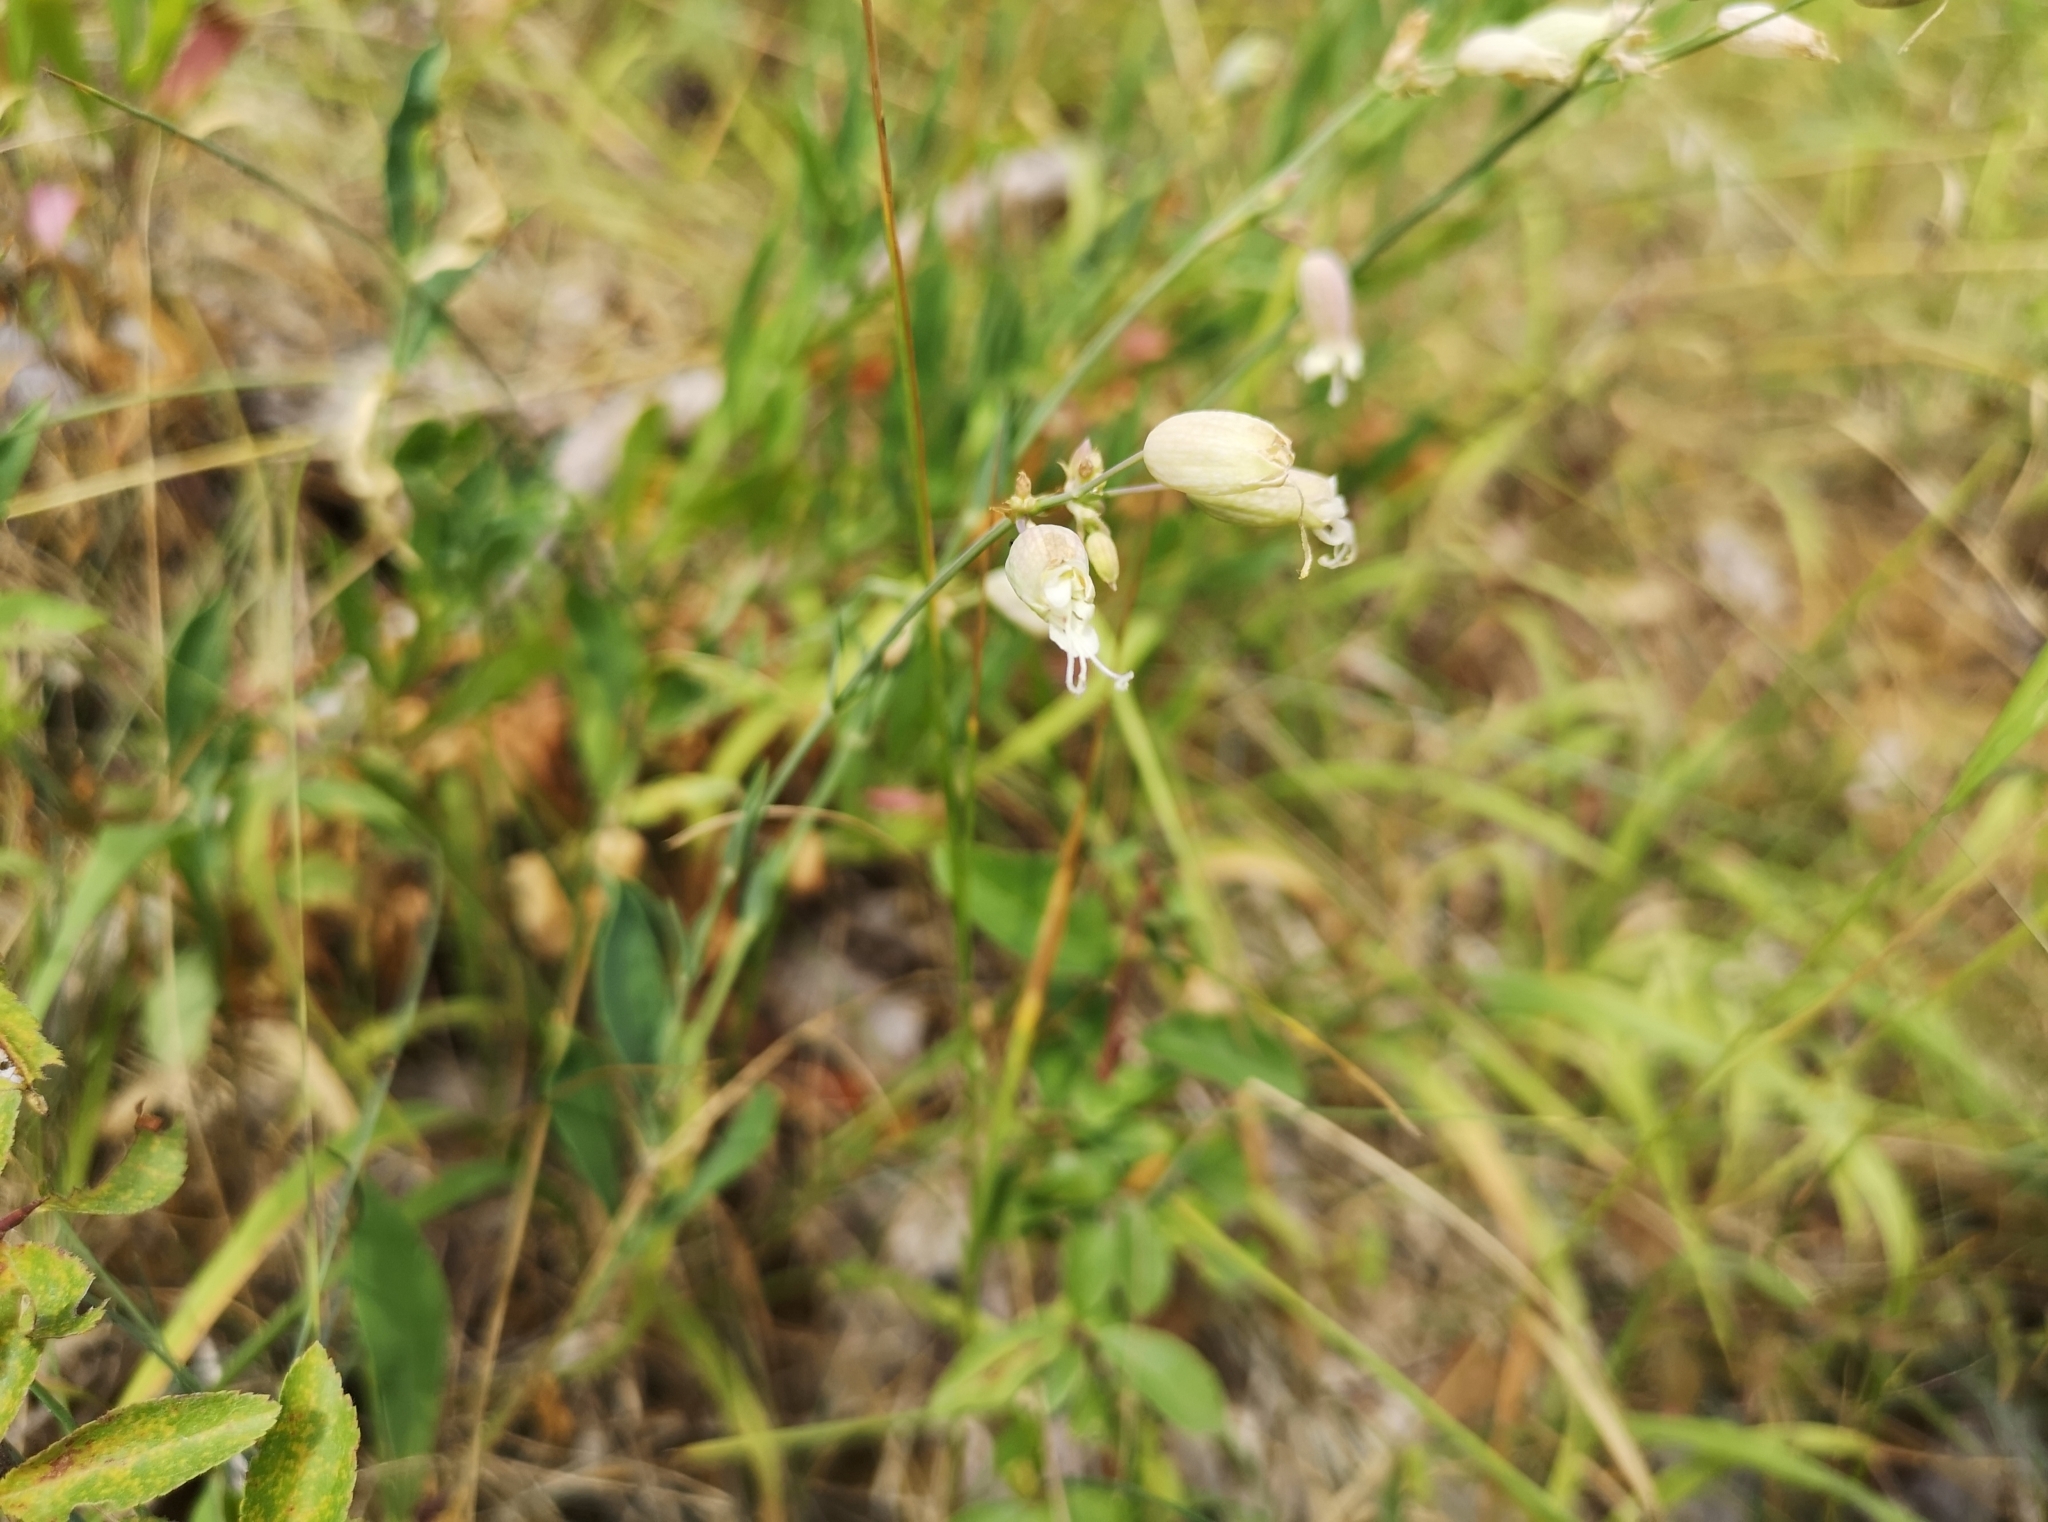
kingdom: Plantae
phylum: Tracheophyta
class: Magnoliopsida
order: Caryophyllales
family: Caryophyllaceae
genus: Silene
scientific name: Silene vulgaris
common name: Bladder campion
